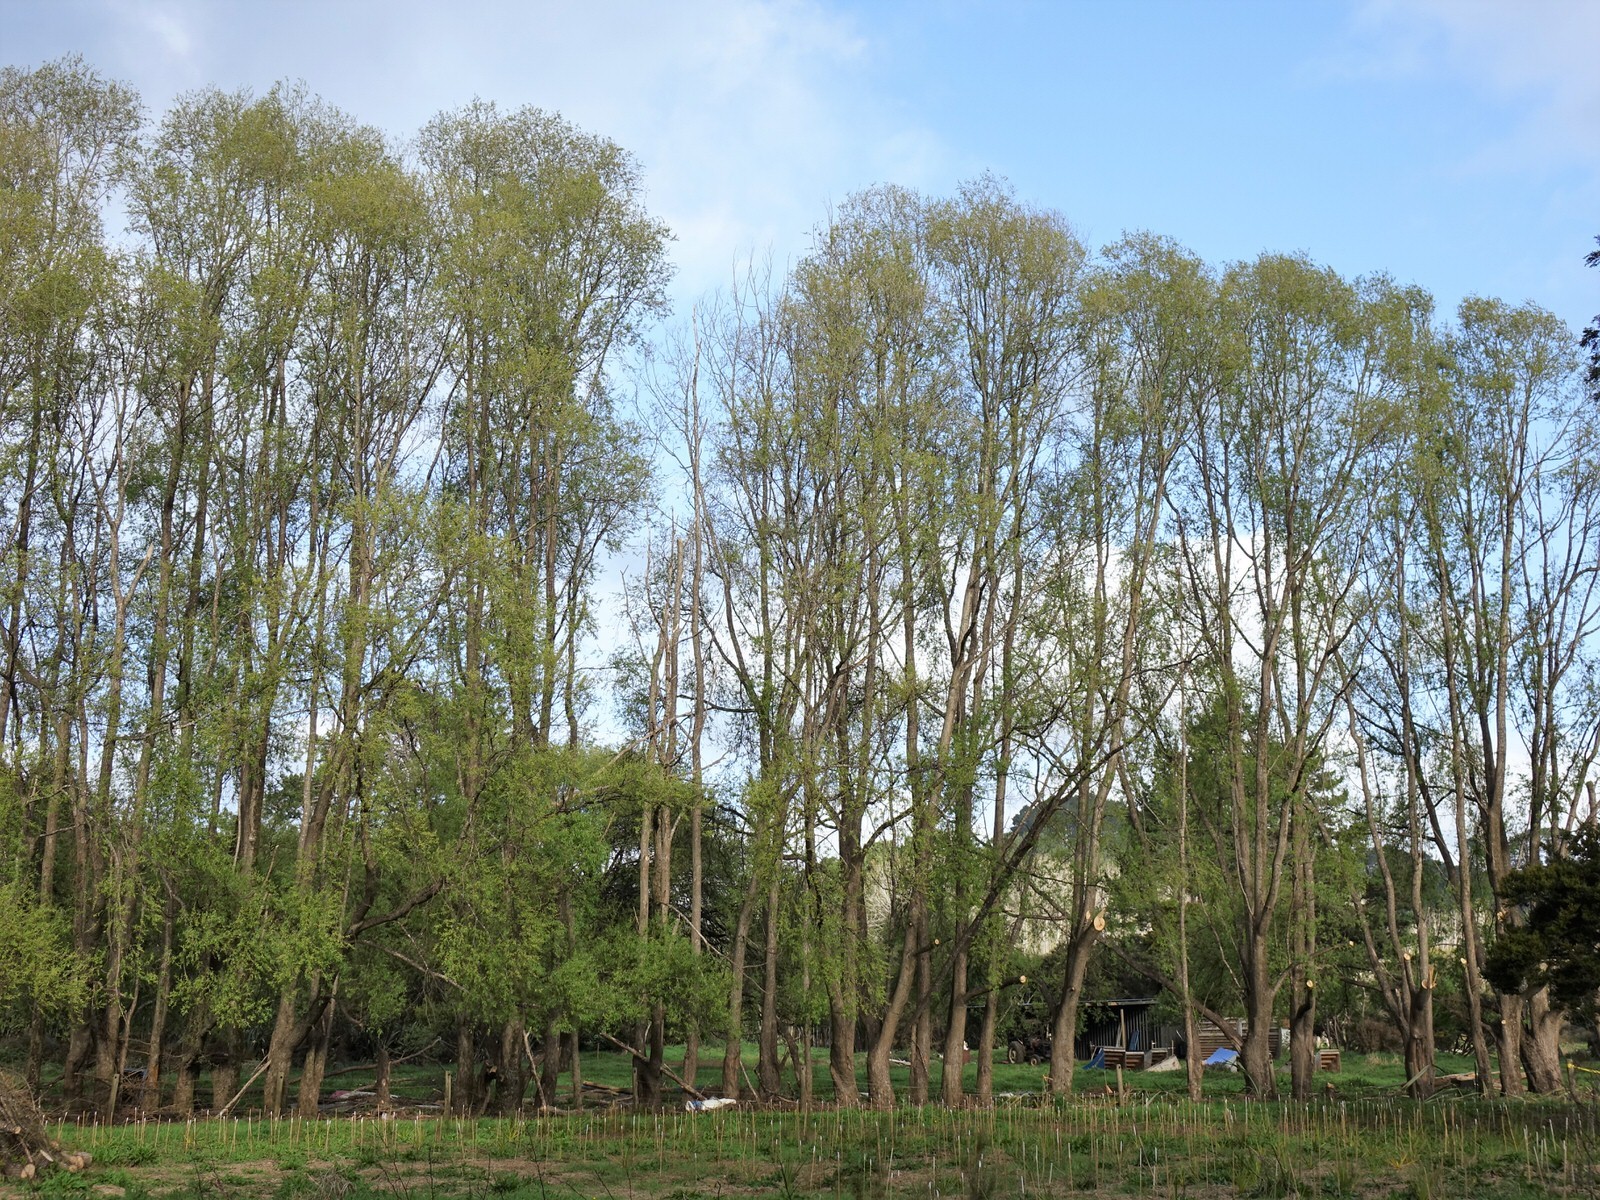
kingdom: Animalia
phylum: Chordata
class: Aves
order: Columbiformes
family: Columbidae
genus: Hemiphaga
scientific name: Hemiphaga novaeseelandiae
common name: New zealand pigeon
